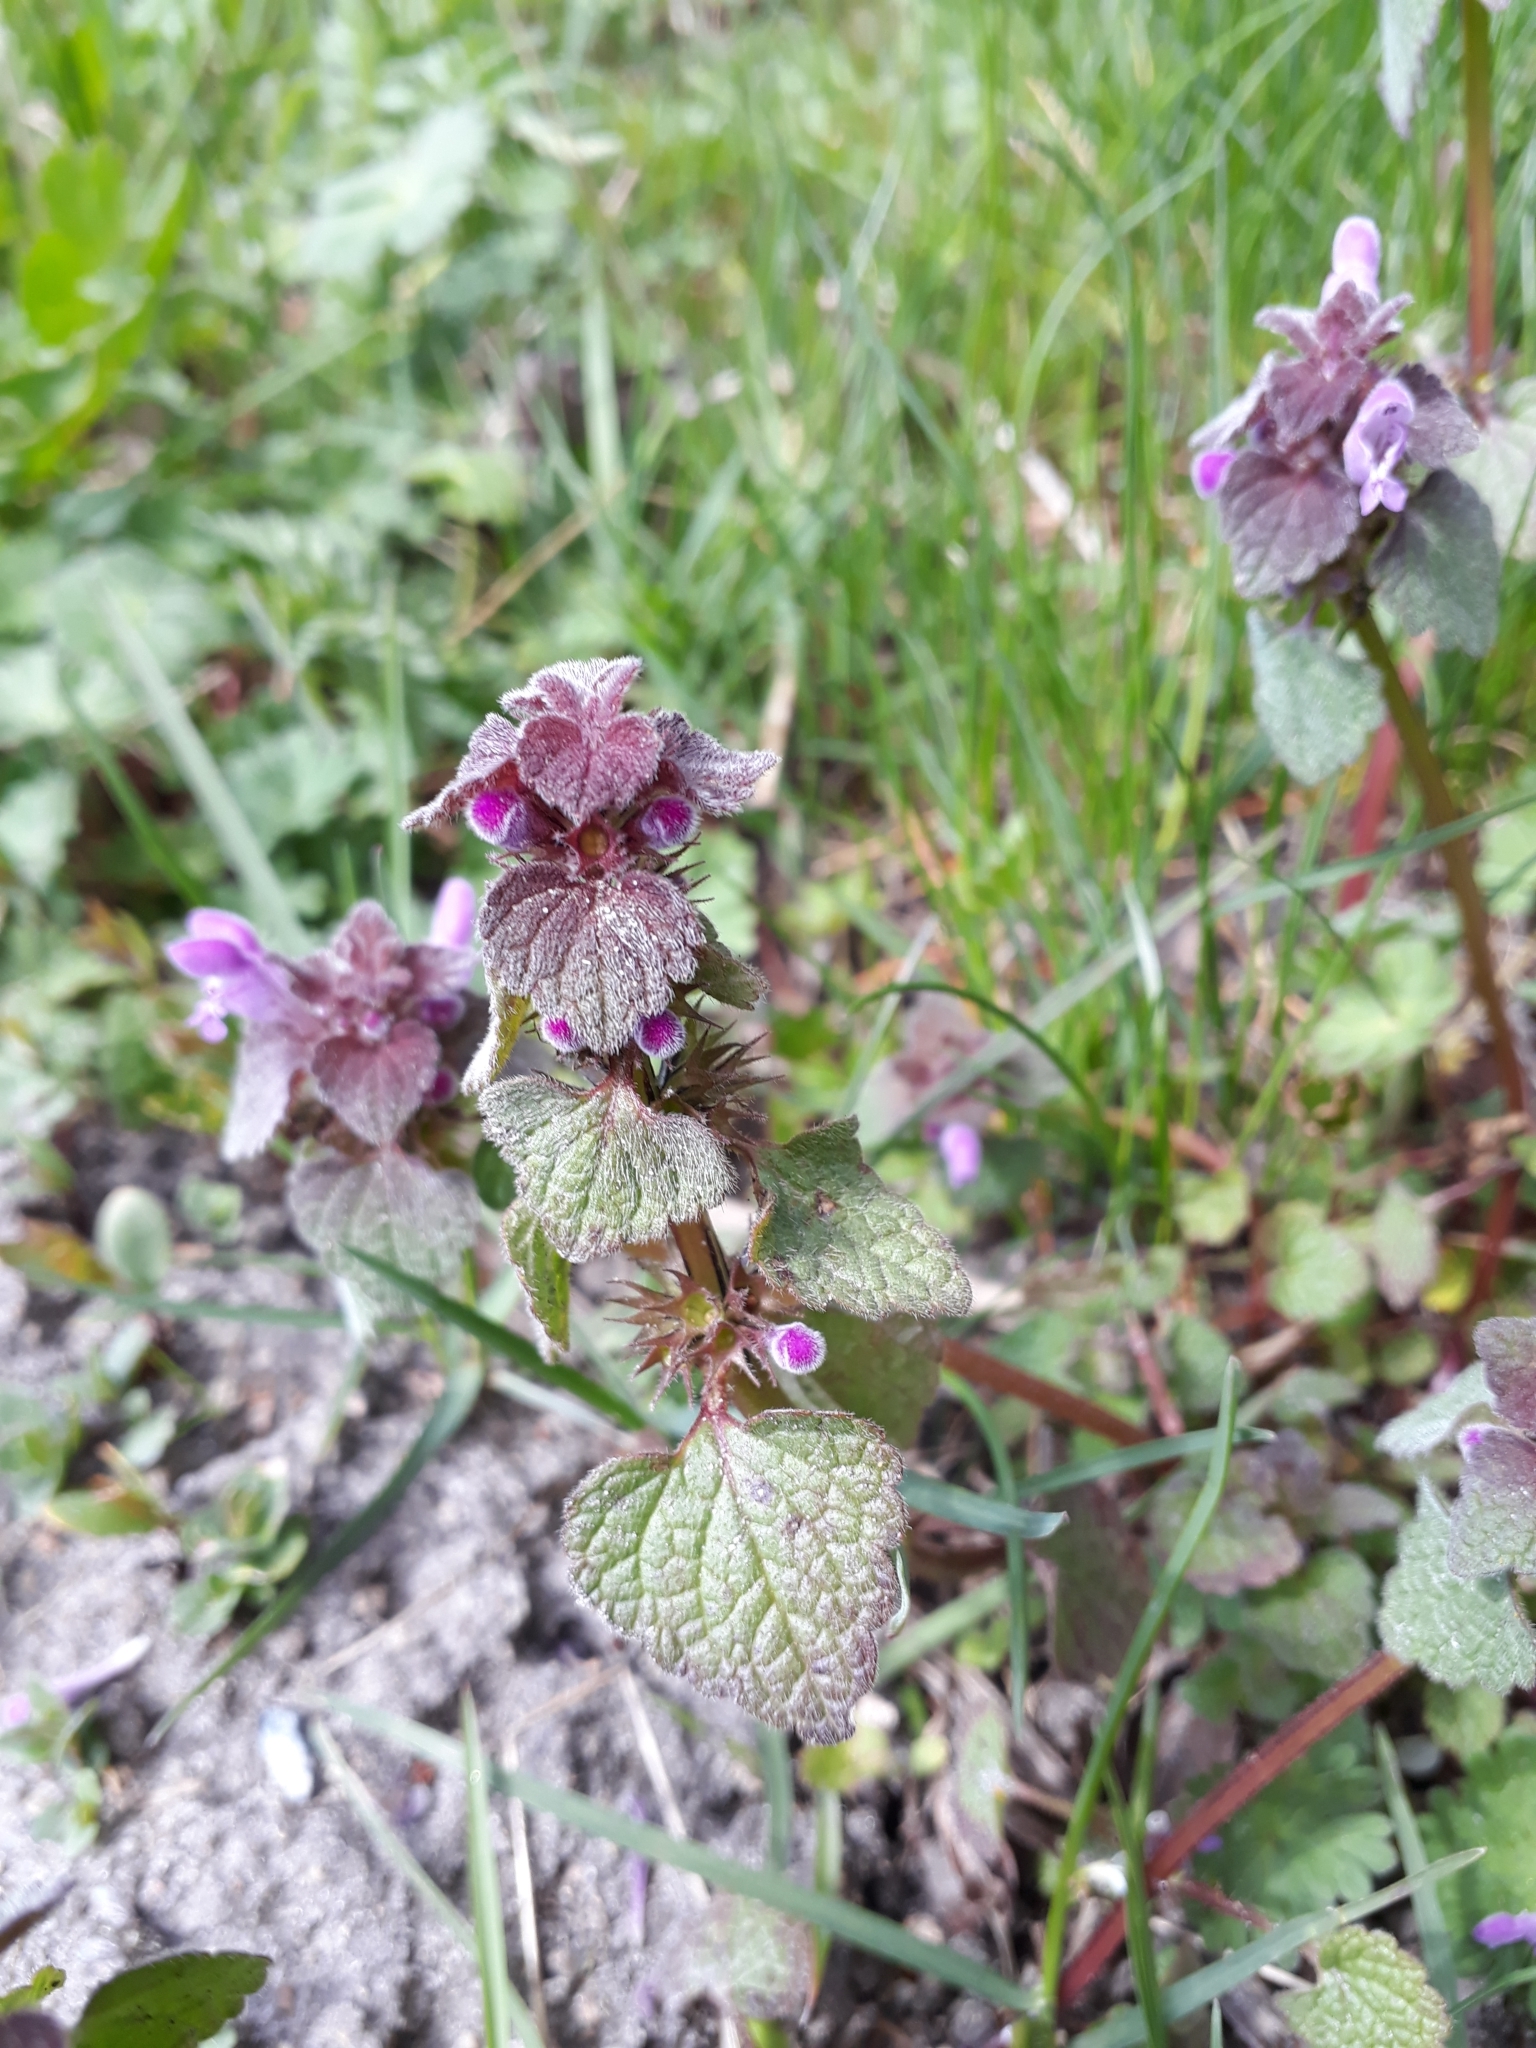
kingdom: Plantae
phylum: Tracheophyta
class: Magnoliopsida
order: Lamiales
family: Lamiaceae
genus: Lamium
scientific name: Lamium purpureum
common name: Red dead-nettle
